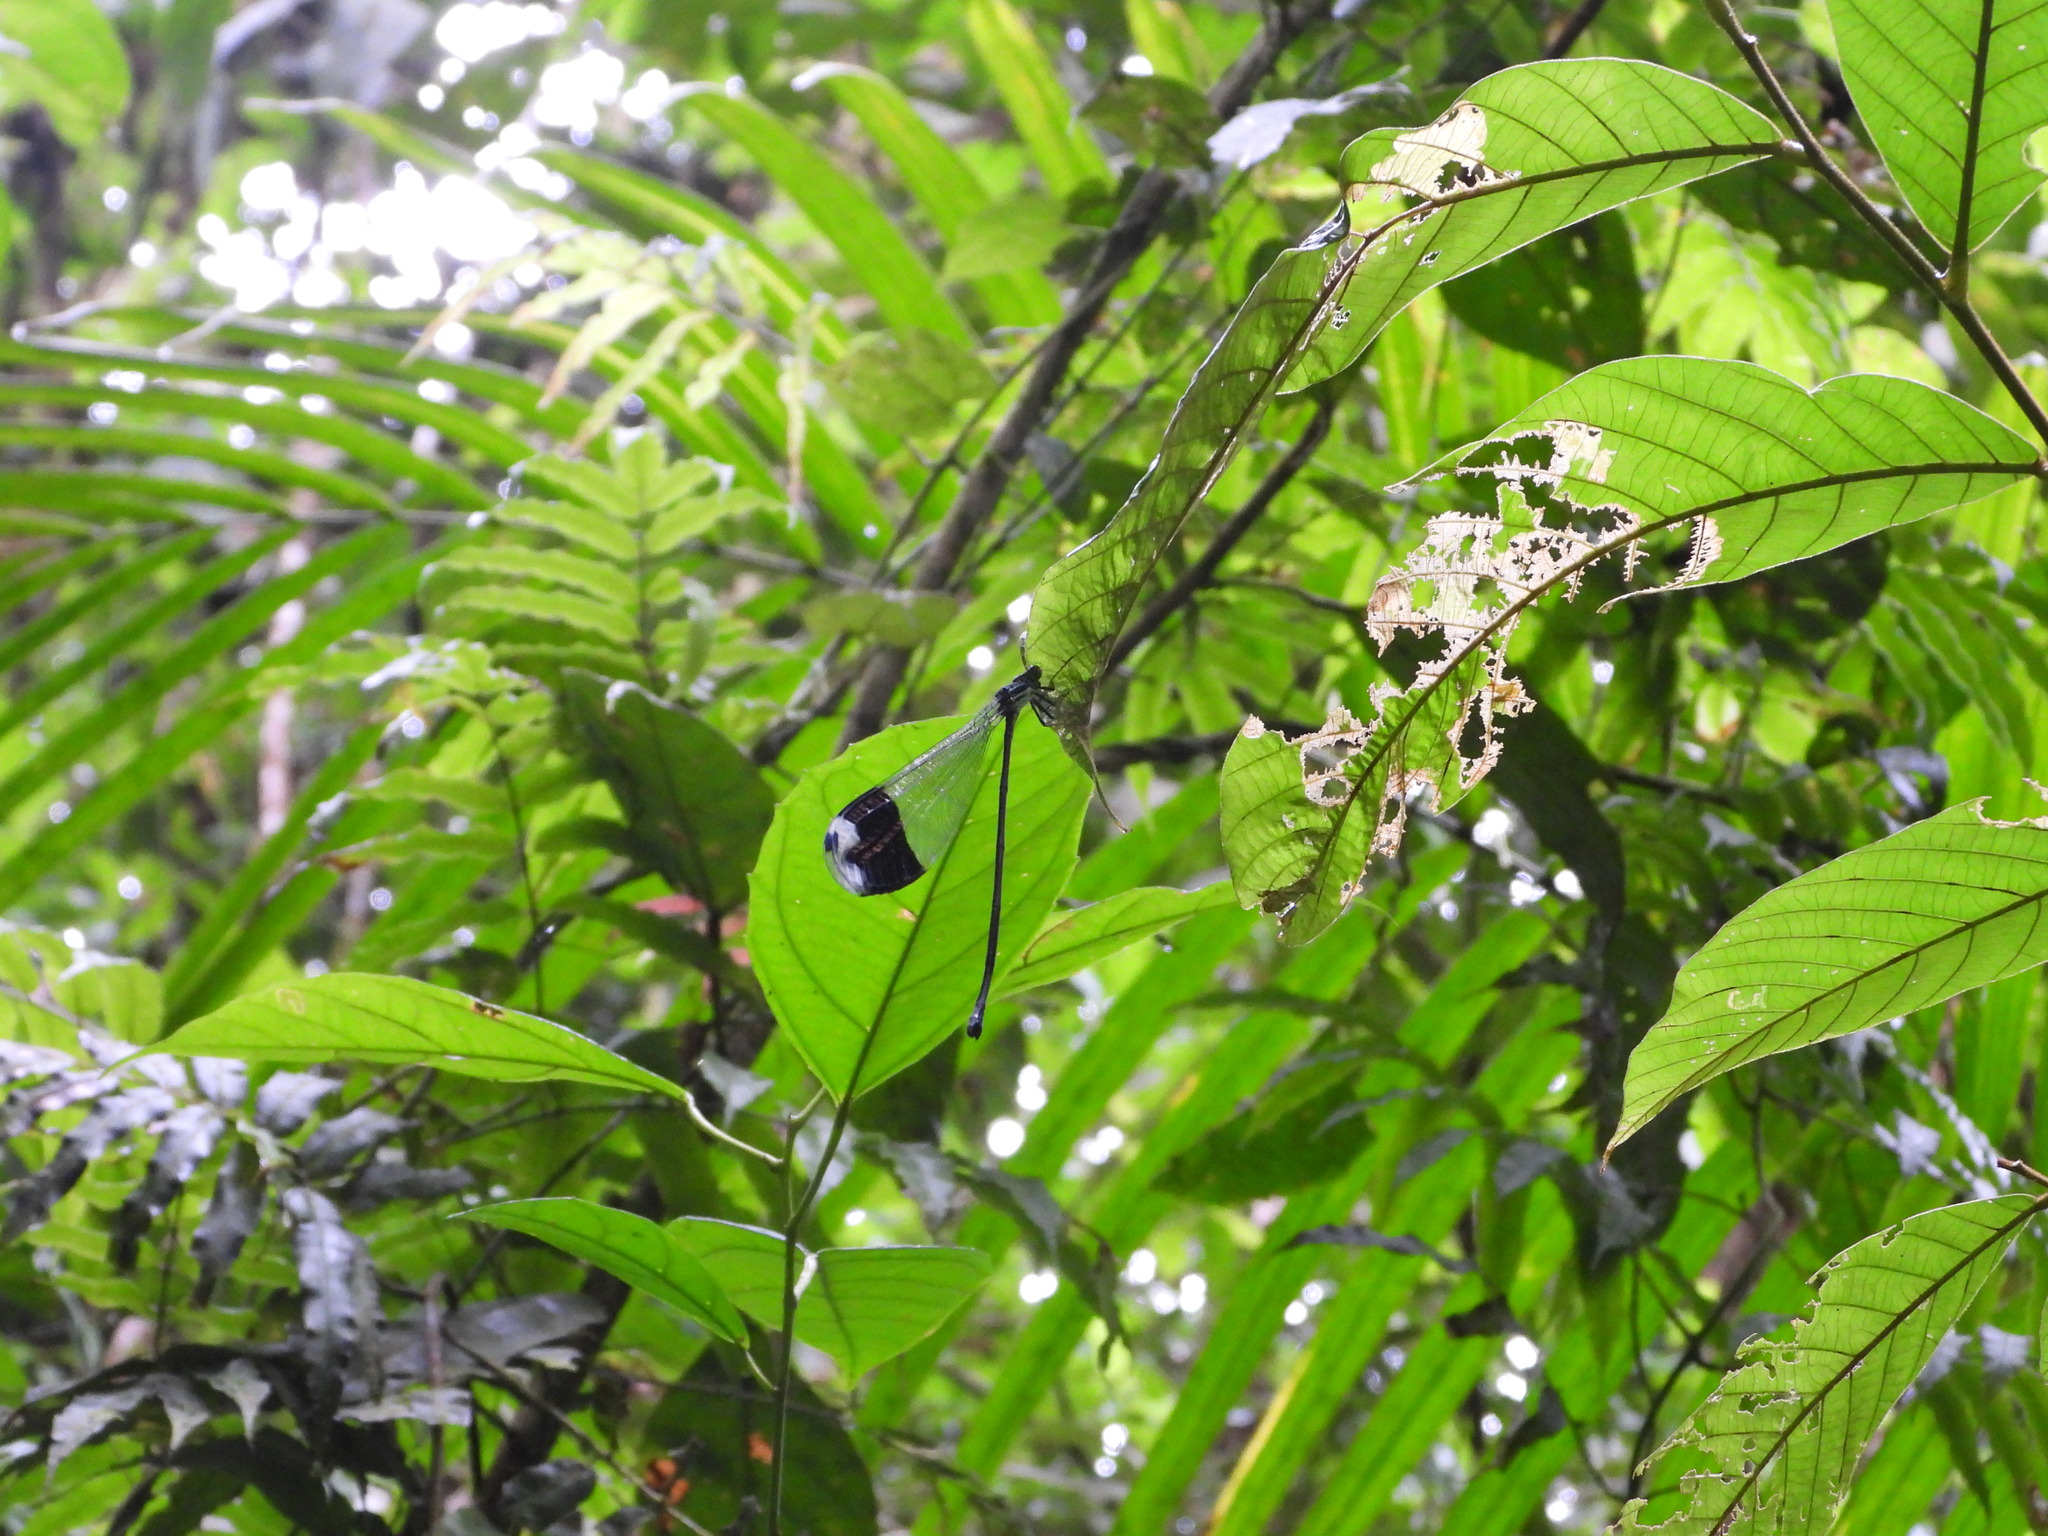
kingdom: Animalia
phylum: Arthropoda
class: Insecta
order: Odonata
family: Coenagrionidae
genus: Megaloprepus
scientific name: Megaloprepus caerulatus
